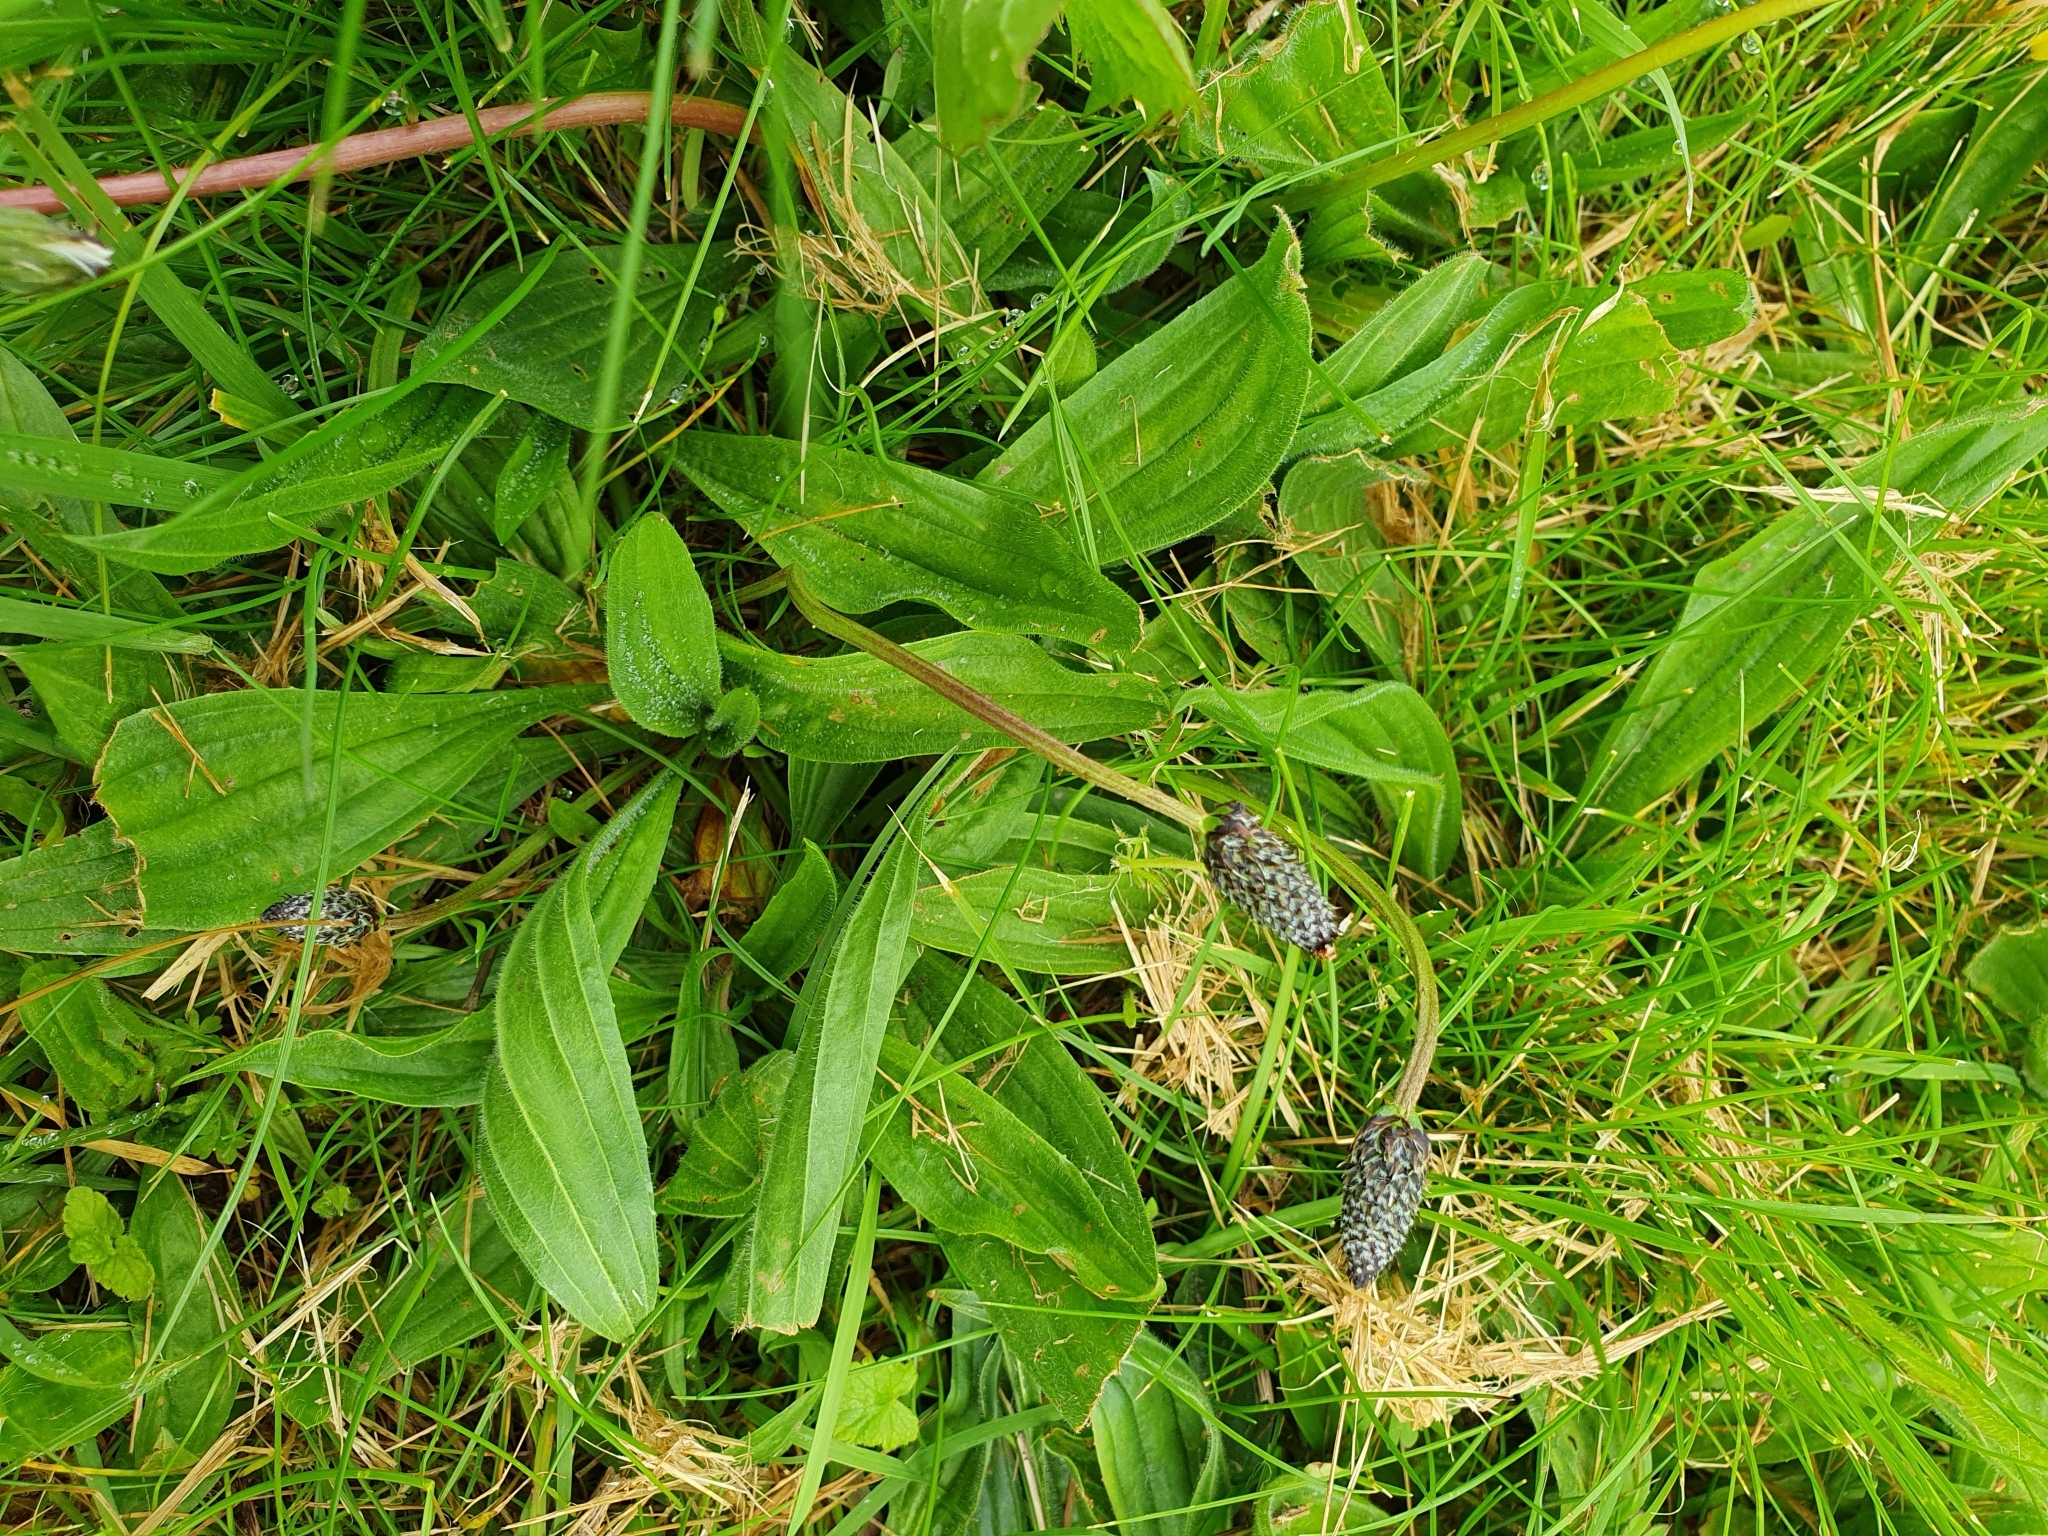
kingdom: Plantae
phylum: Tracheophyta
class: Magnoliopsida
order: Lamiales
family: Plantaginaceae
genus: Plantago
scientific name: Plantago lanceolata
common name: Ribwort plantain
